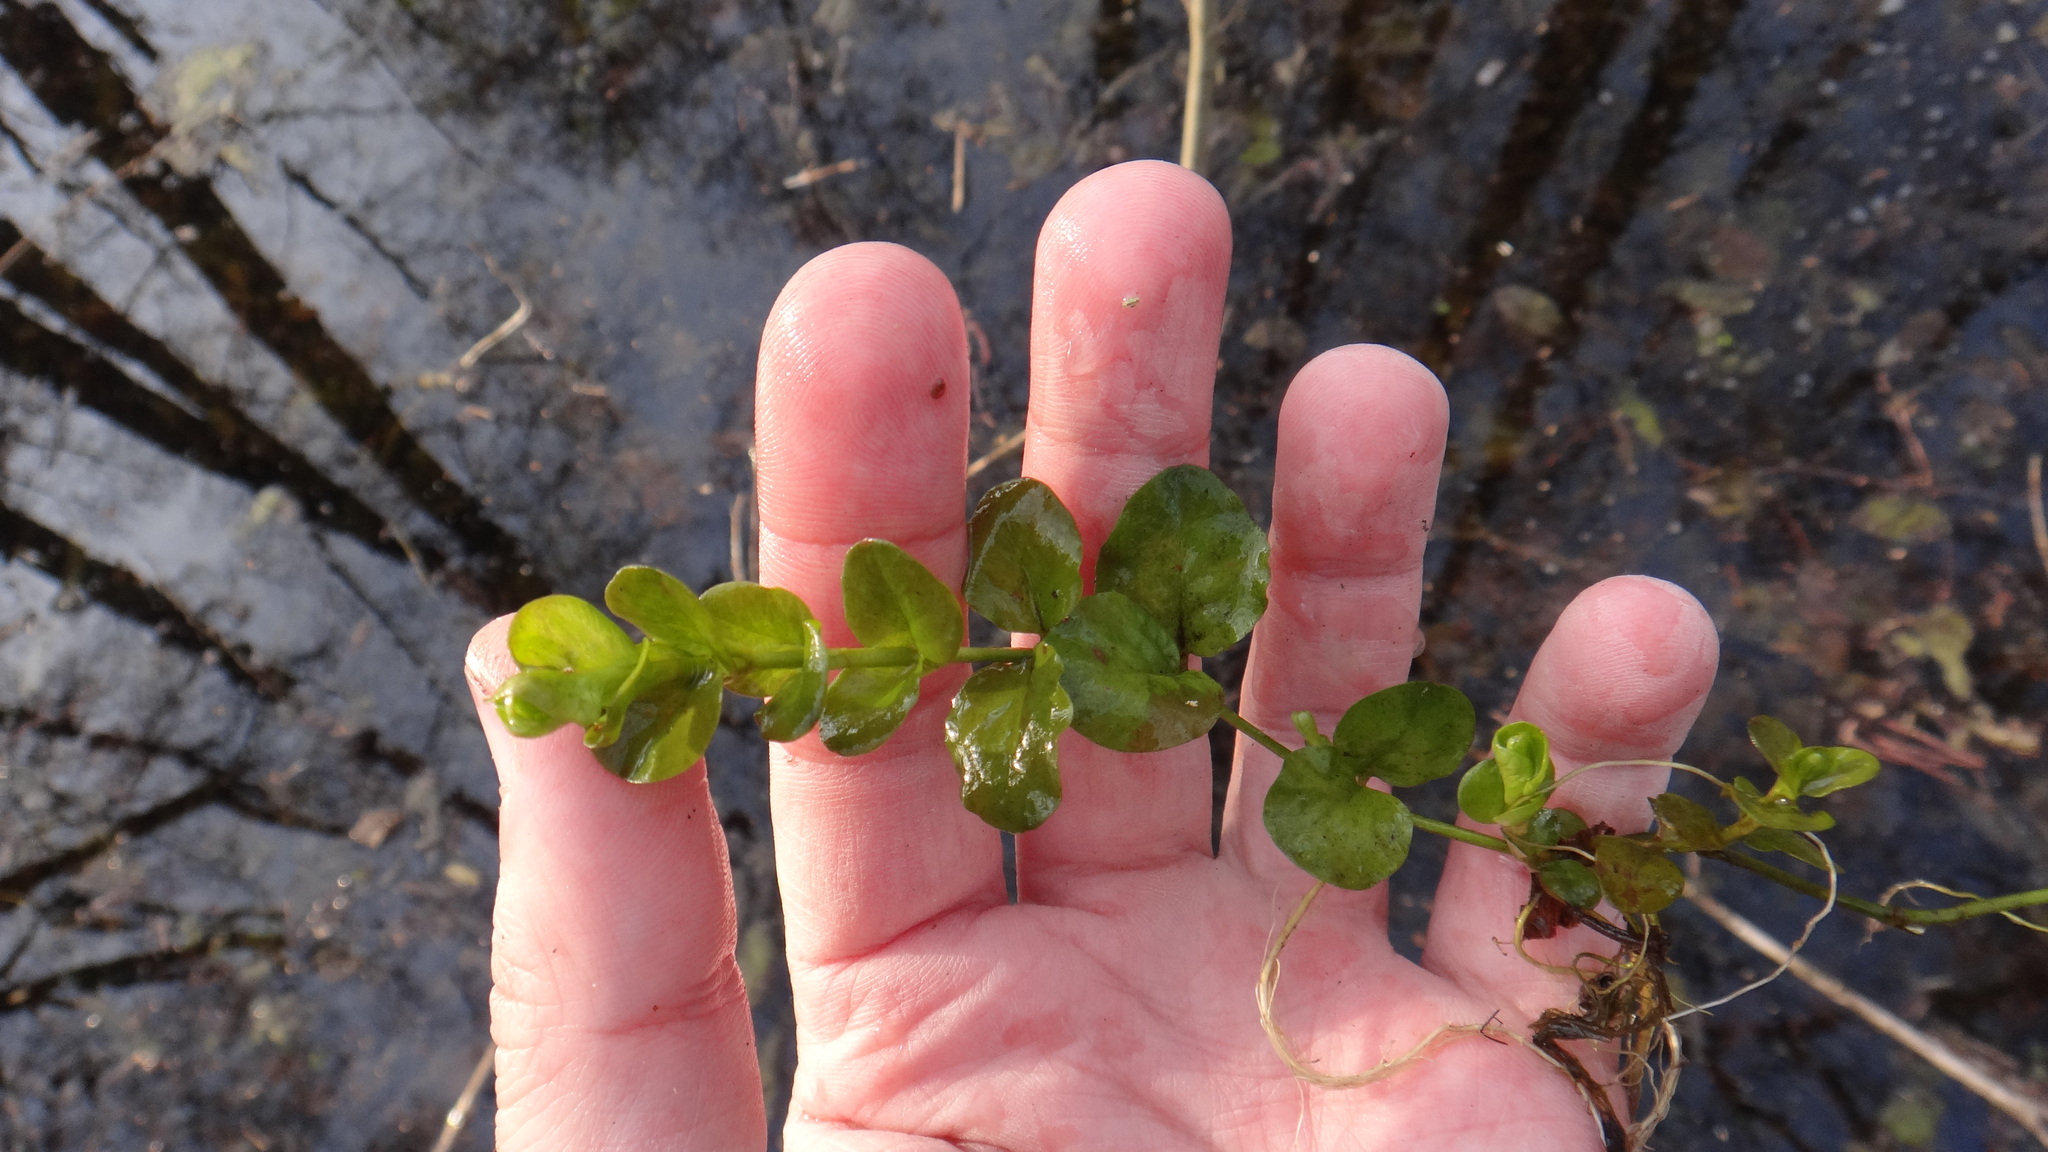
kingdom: Plantae
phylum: Tracheophyta
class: Magnoliopsida
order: Ericales
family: Primulaceae
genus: Lysimachia
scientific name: Lysimachia nummularia
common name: Moneywort
